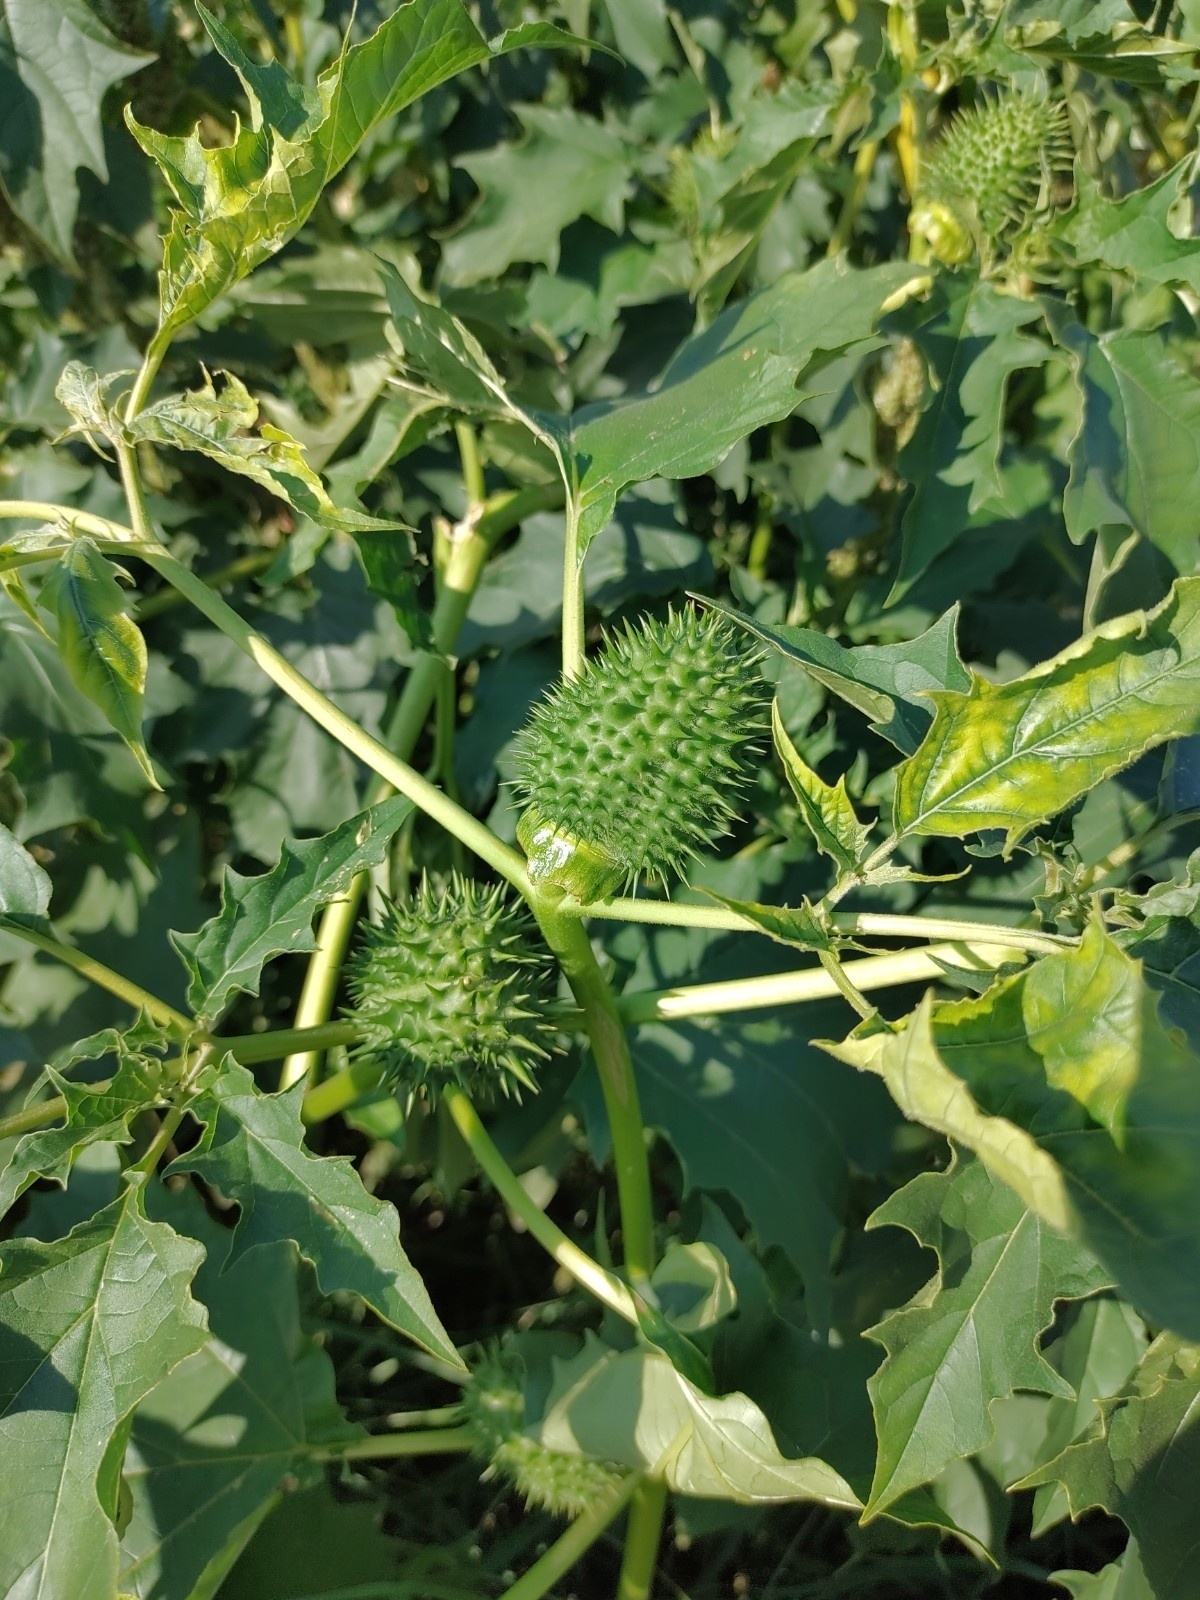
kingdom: Plantae
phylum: Tracheophyta
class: Magnoliopsida
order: Solanales
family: Solanaceae
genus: Datura
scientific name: Datura stramonium
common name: Thorn-apple
